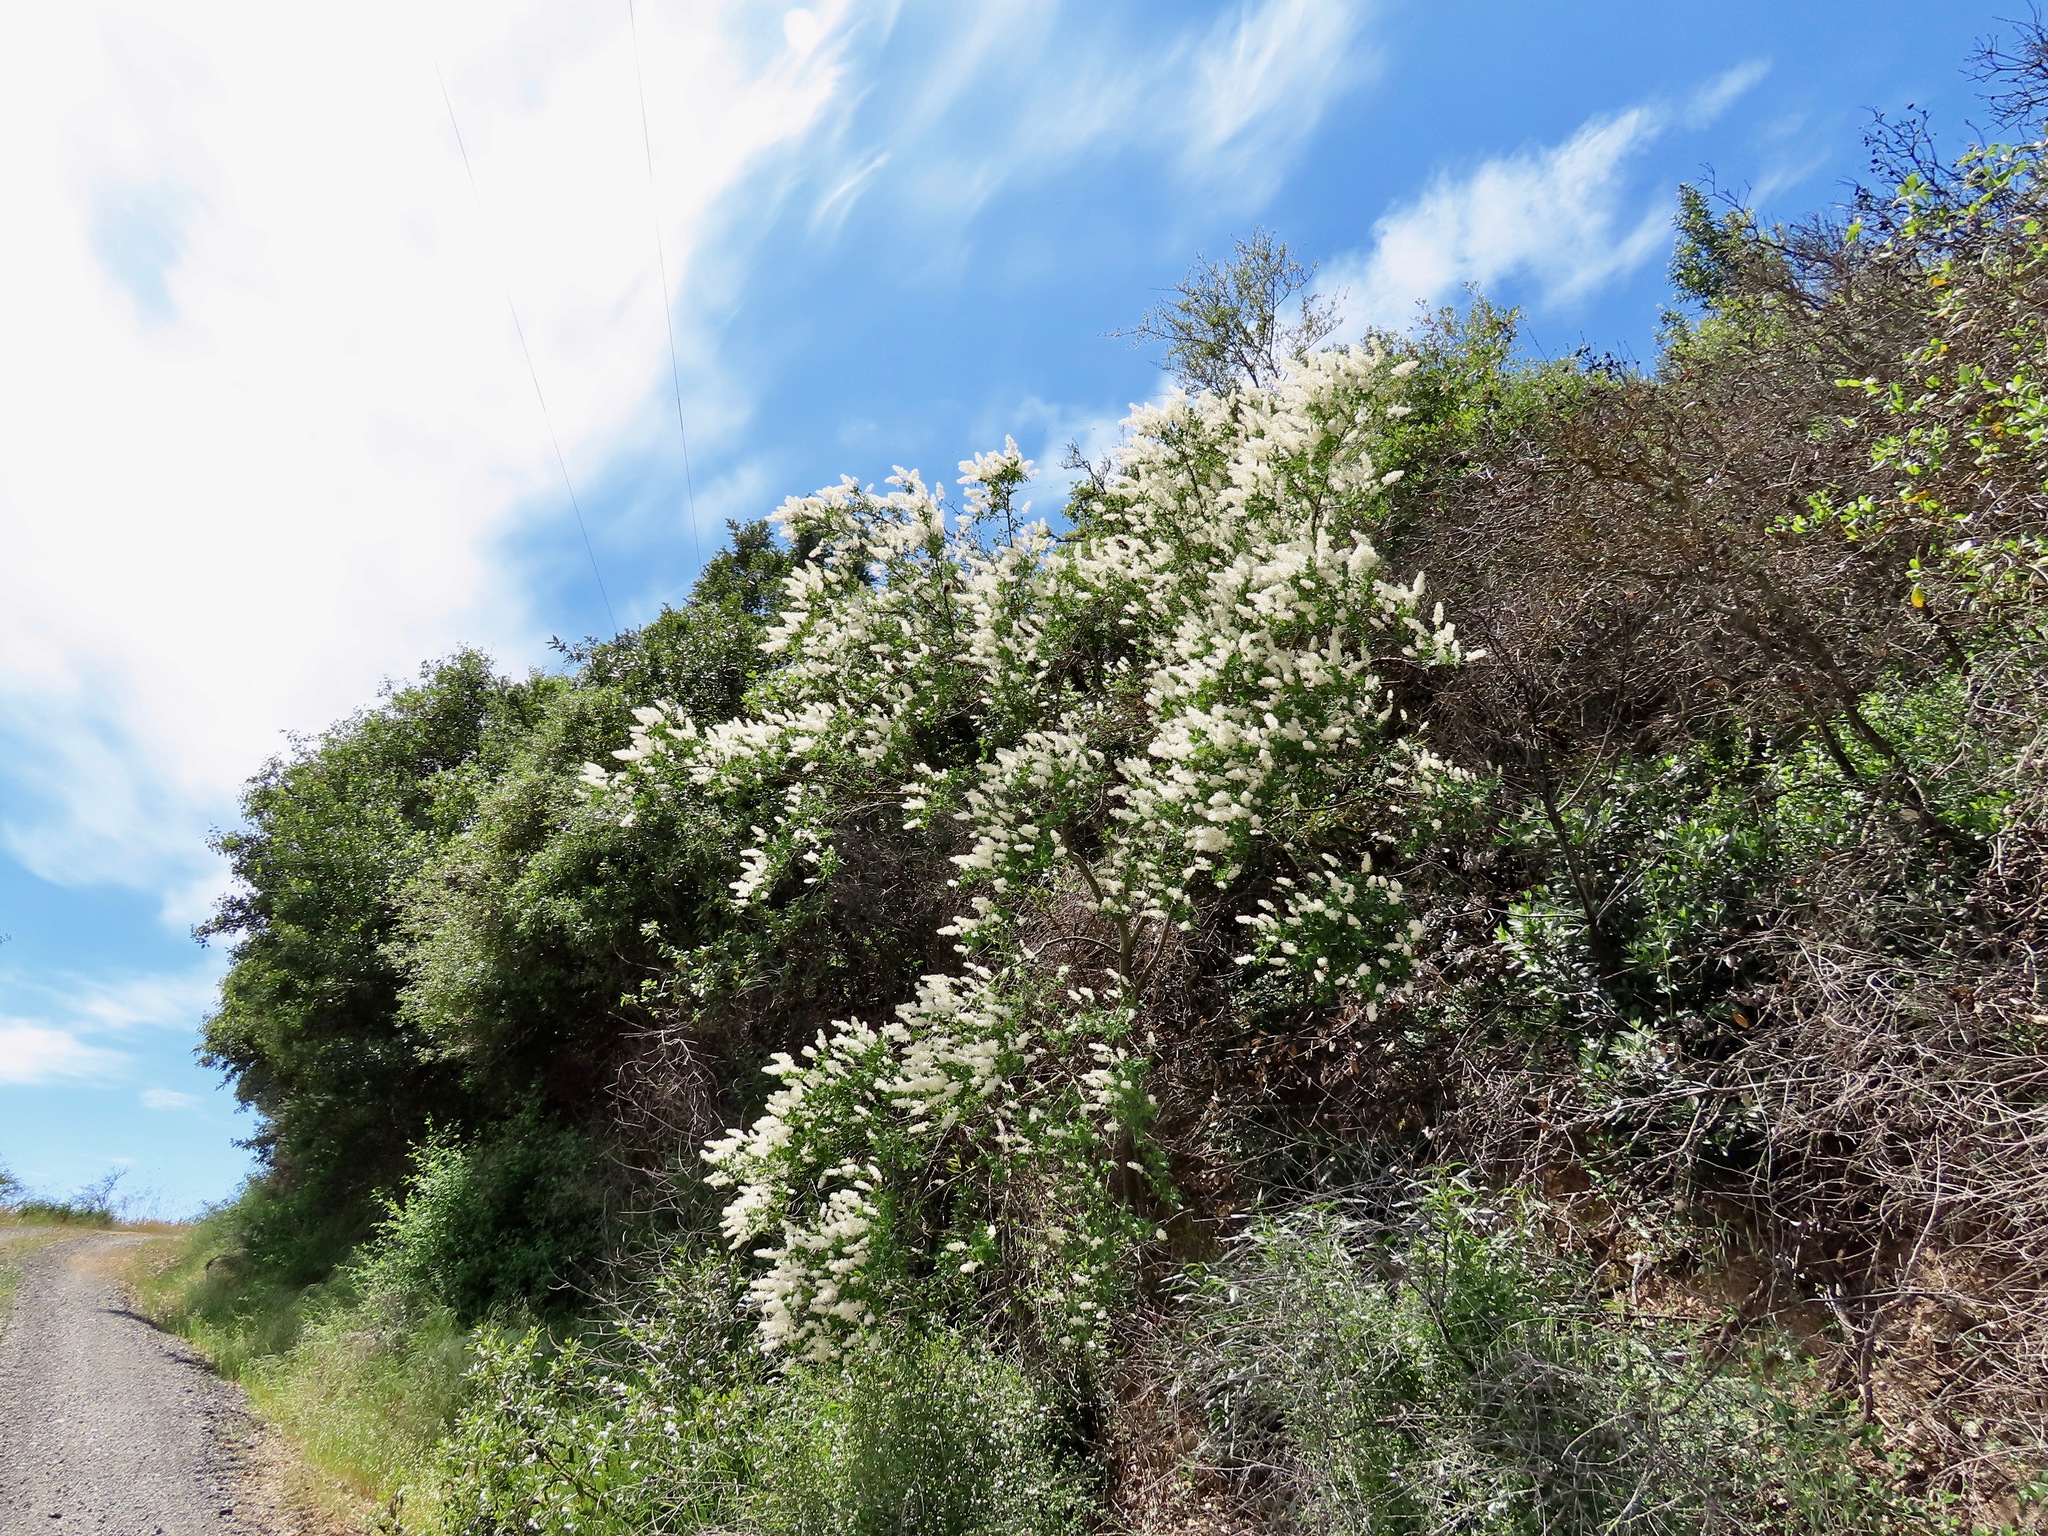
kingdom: Plantae
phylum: Tracheophyta
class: Magnoliopsida
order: Rosales
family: Rhamnaceae
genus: Ceanothus
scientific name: Ceanothus integerrimus
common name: Deerbrush ceanothus
